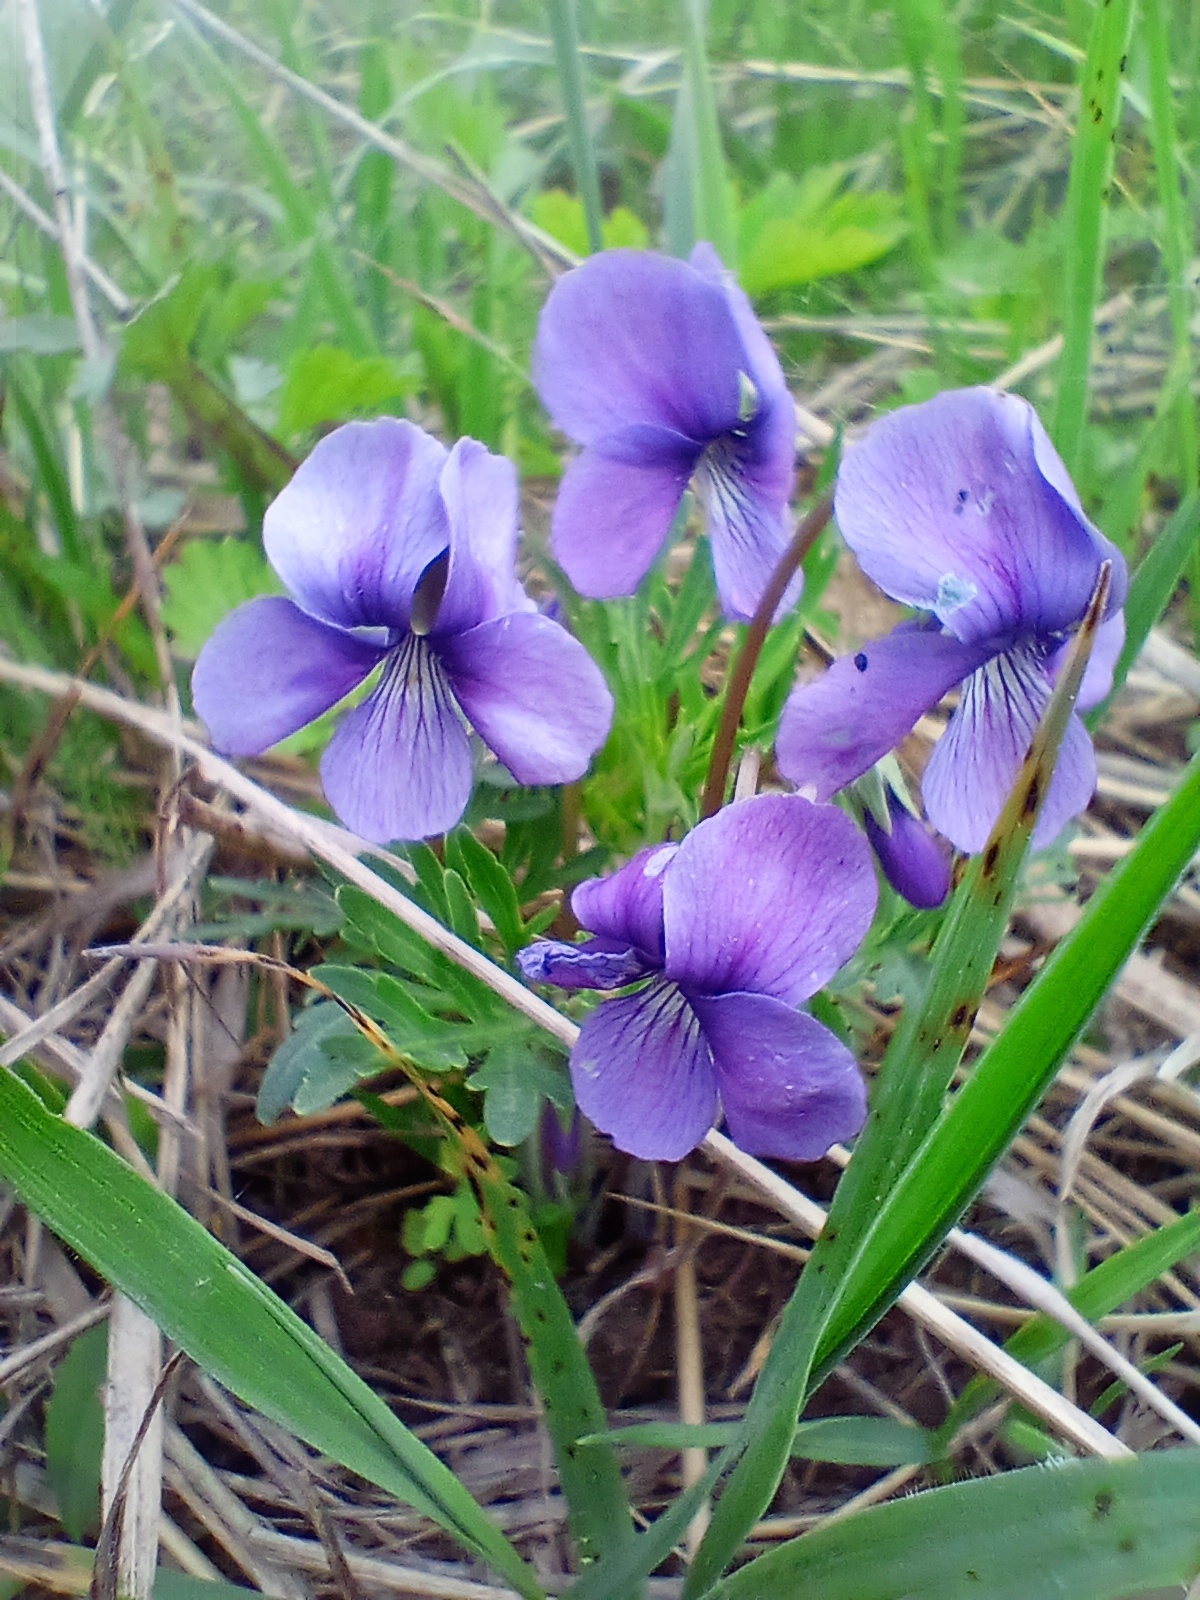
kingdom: Plantae
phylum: Tracheophyta
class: Magnoliopsida
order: Malpighiales
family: Violaceae
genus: Viola
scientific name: Viola multifida
